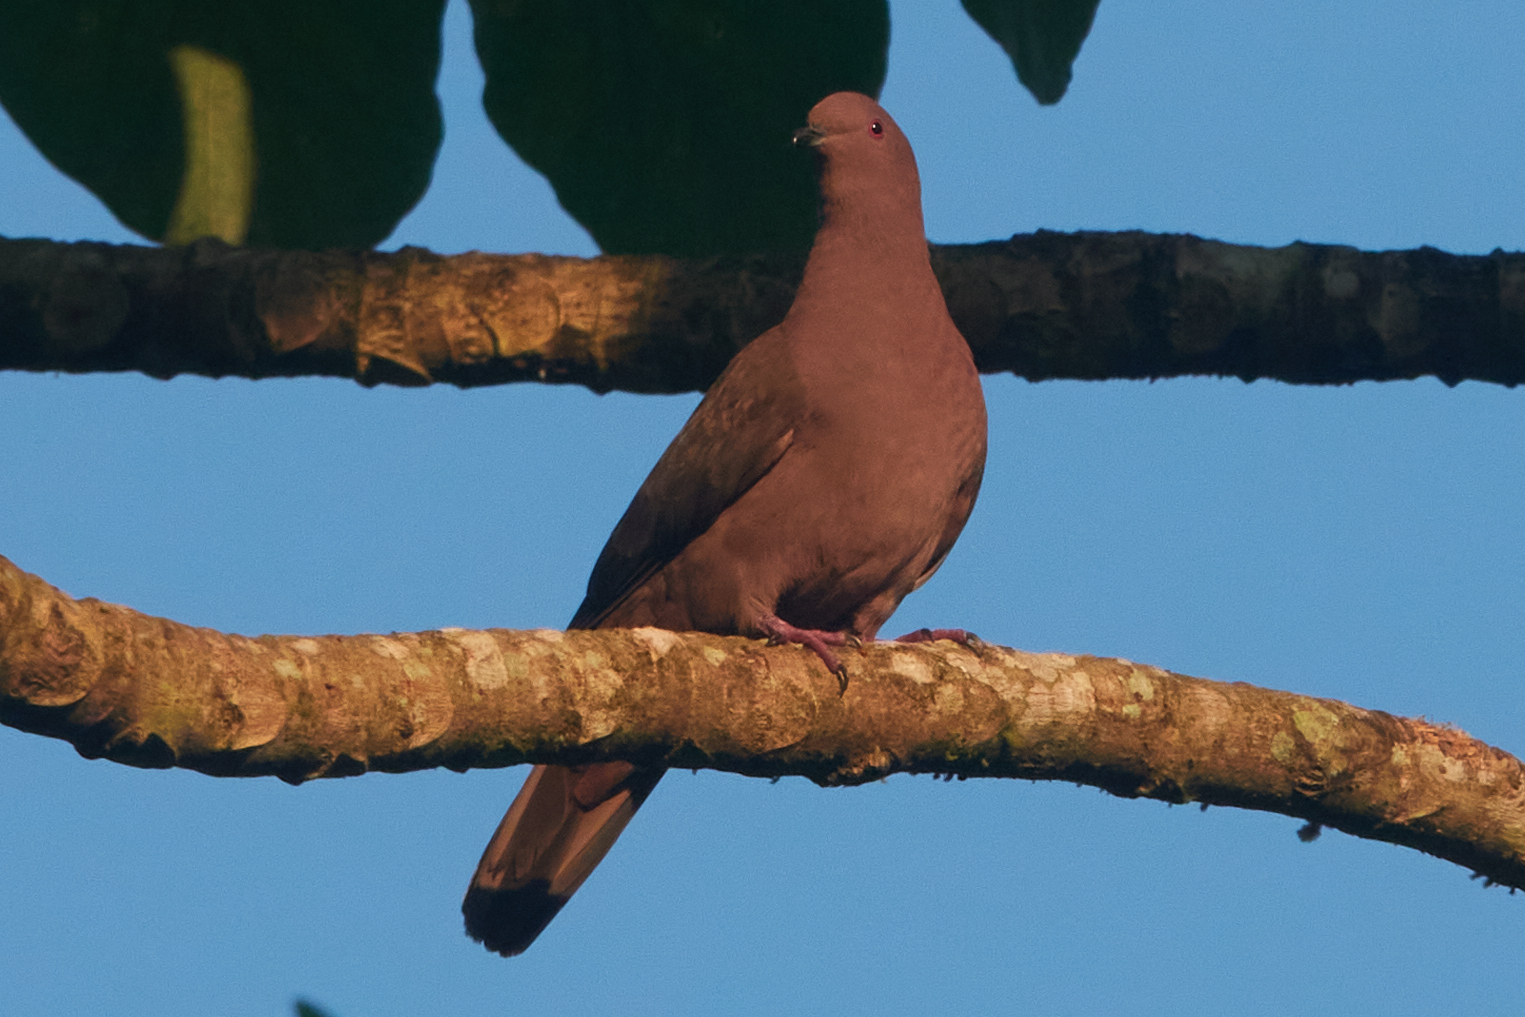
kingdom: Animalia
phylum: Chordata
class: Aves
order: Columbiformes
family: Columbidae
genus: Patagioenas
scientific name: Patagioenas nigrirostris
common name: Short-billed pigeon
